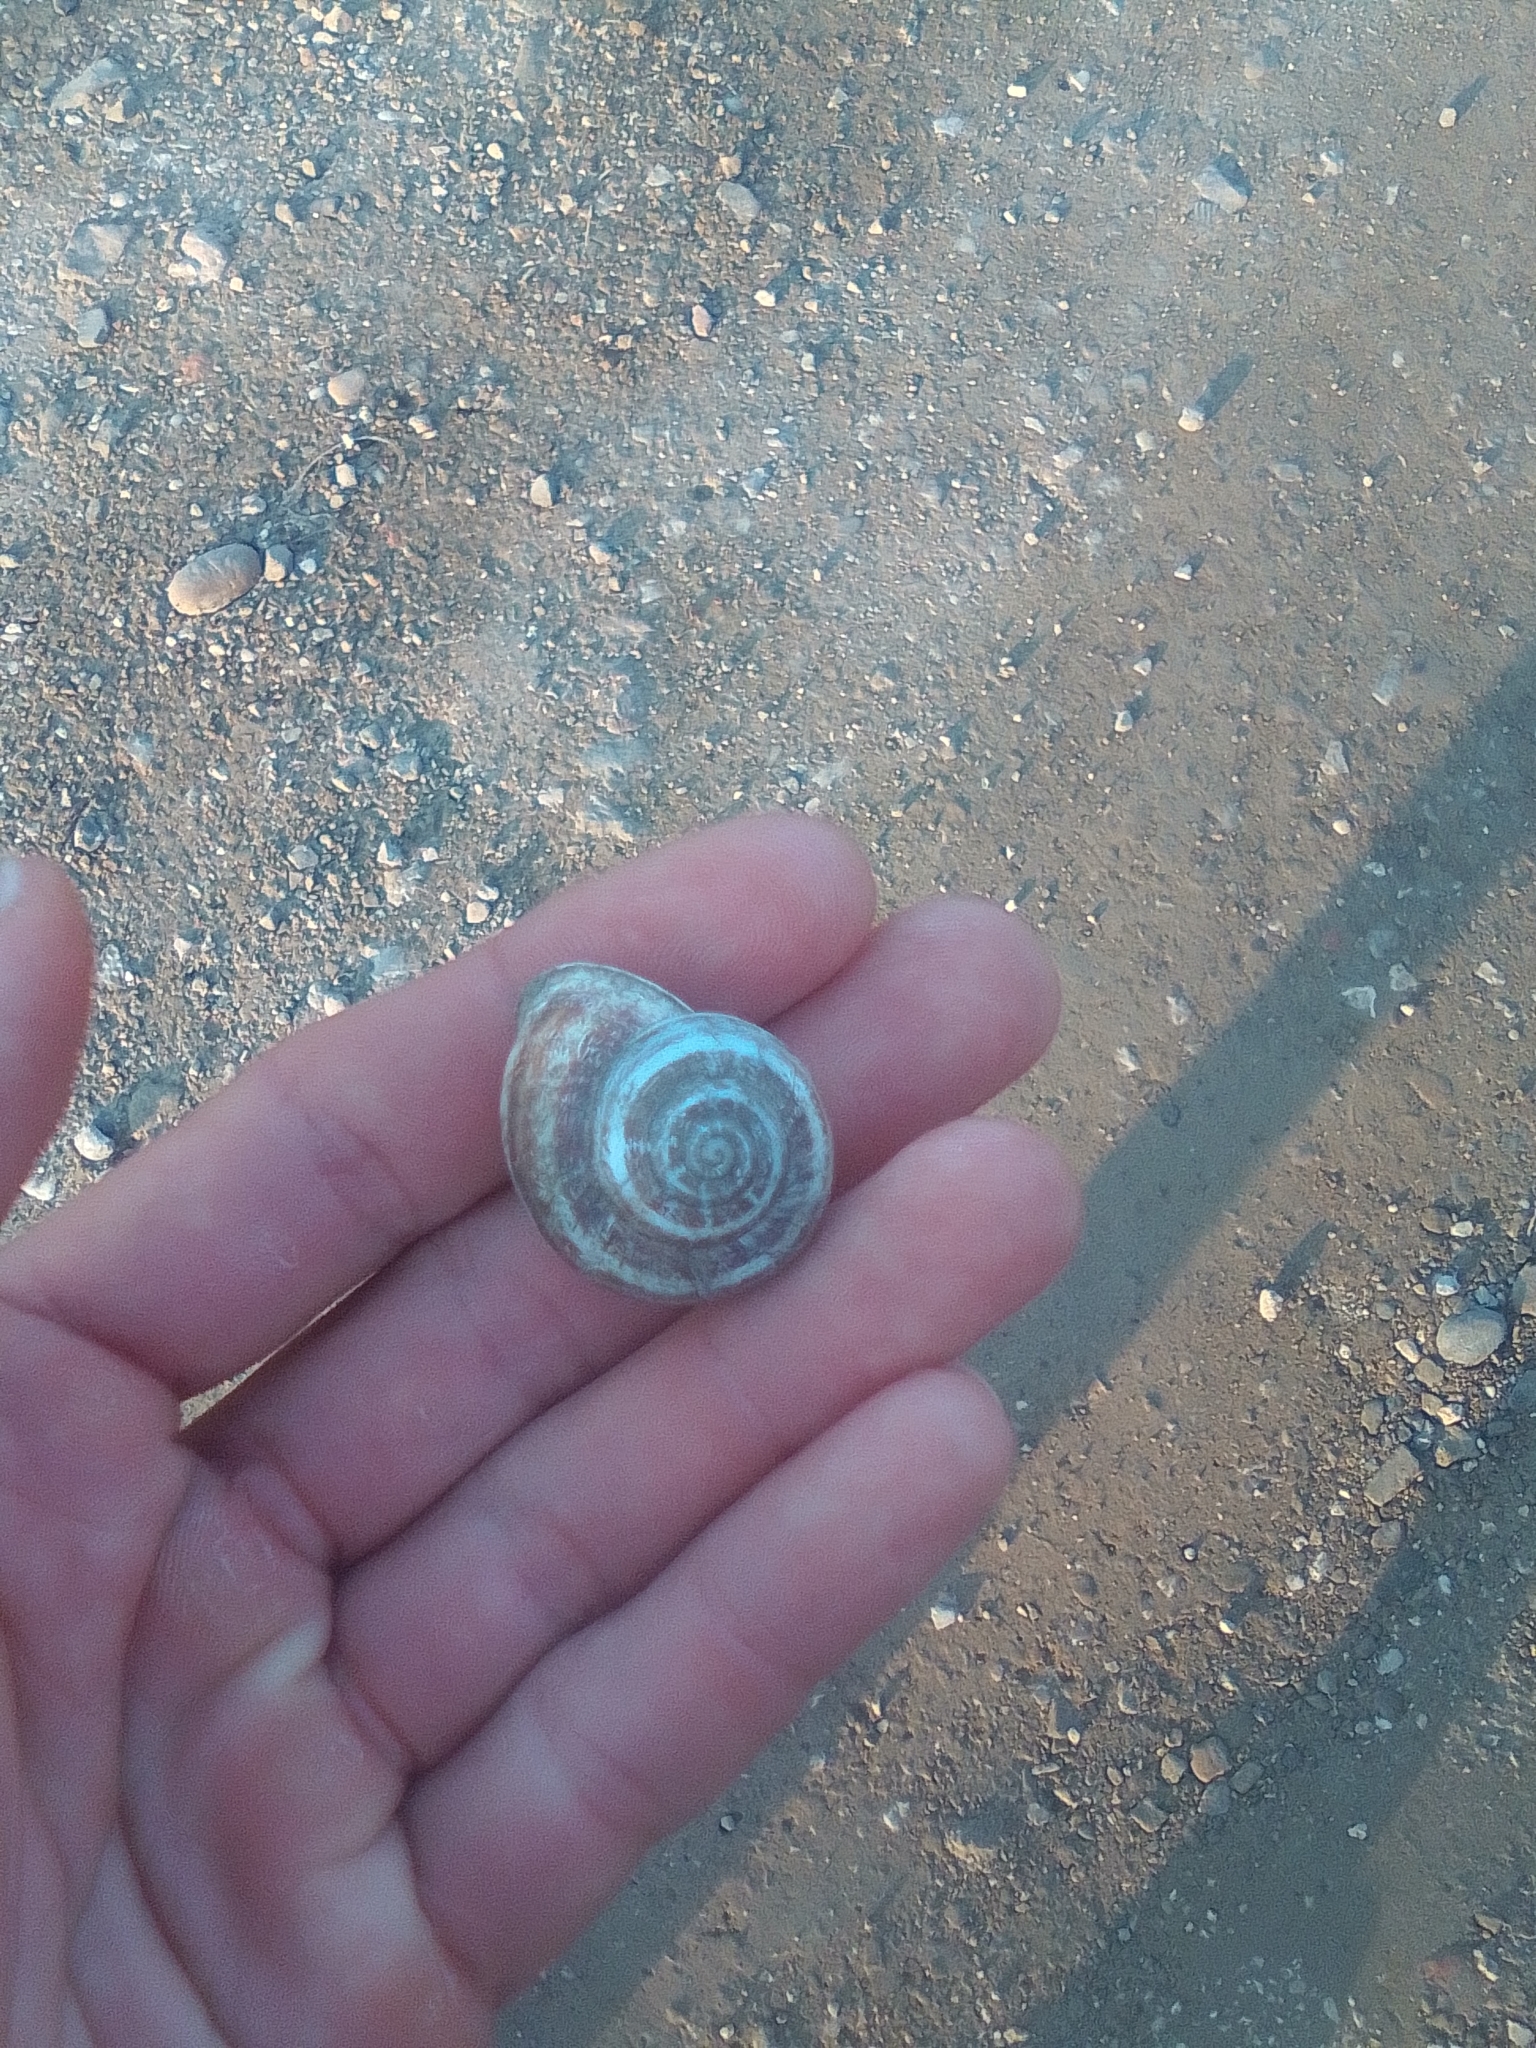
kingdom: Animalia
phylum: Mollusca
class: Gastropoda
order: Stylommatophora
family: Helicidae
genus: Eobania
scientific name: Eobania vermiculata
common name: Chocolateband snail
